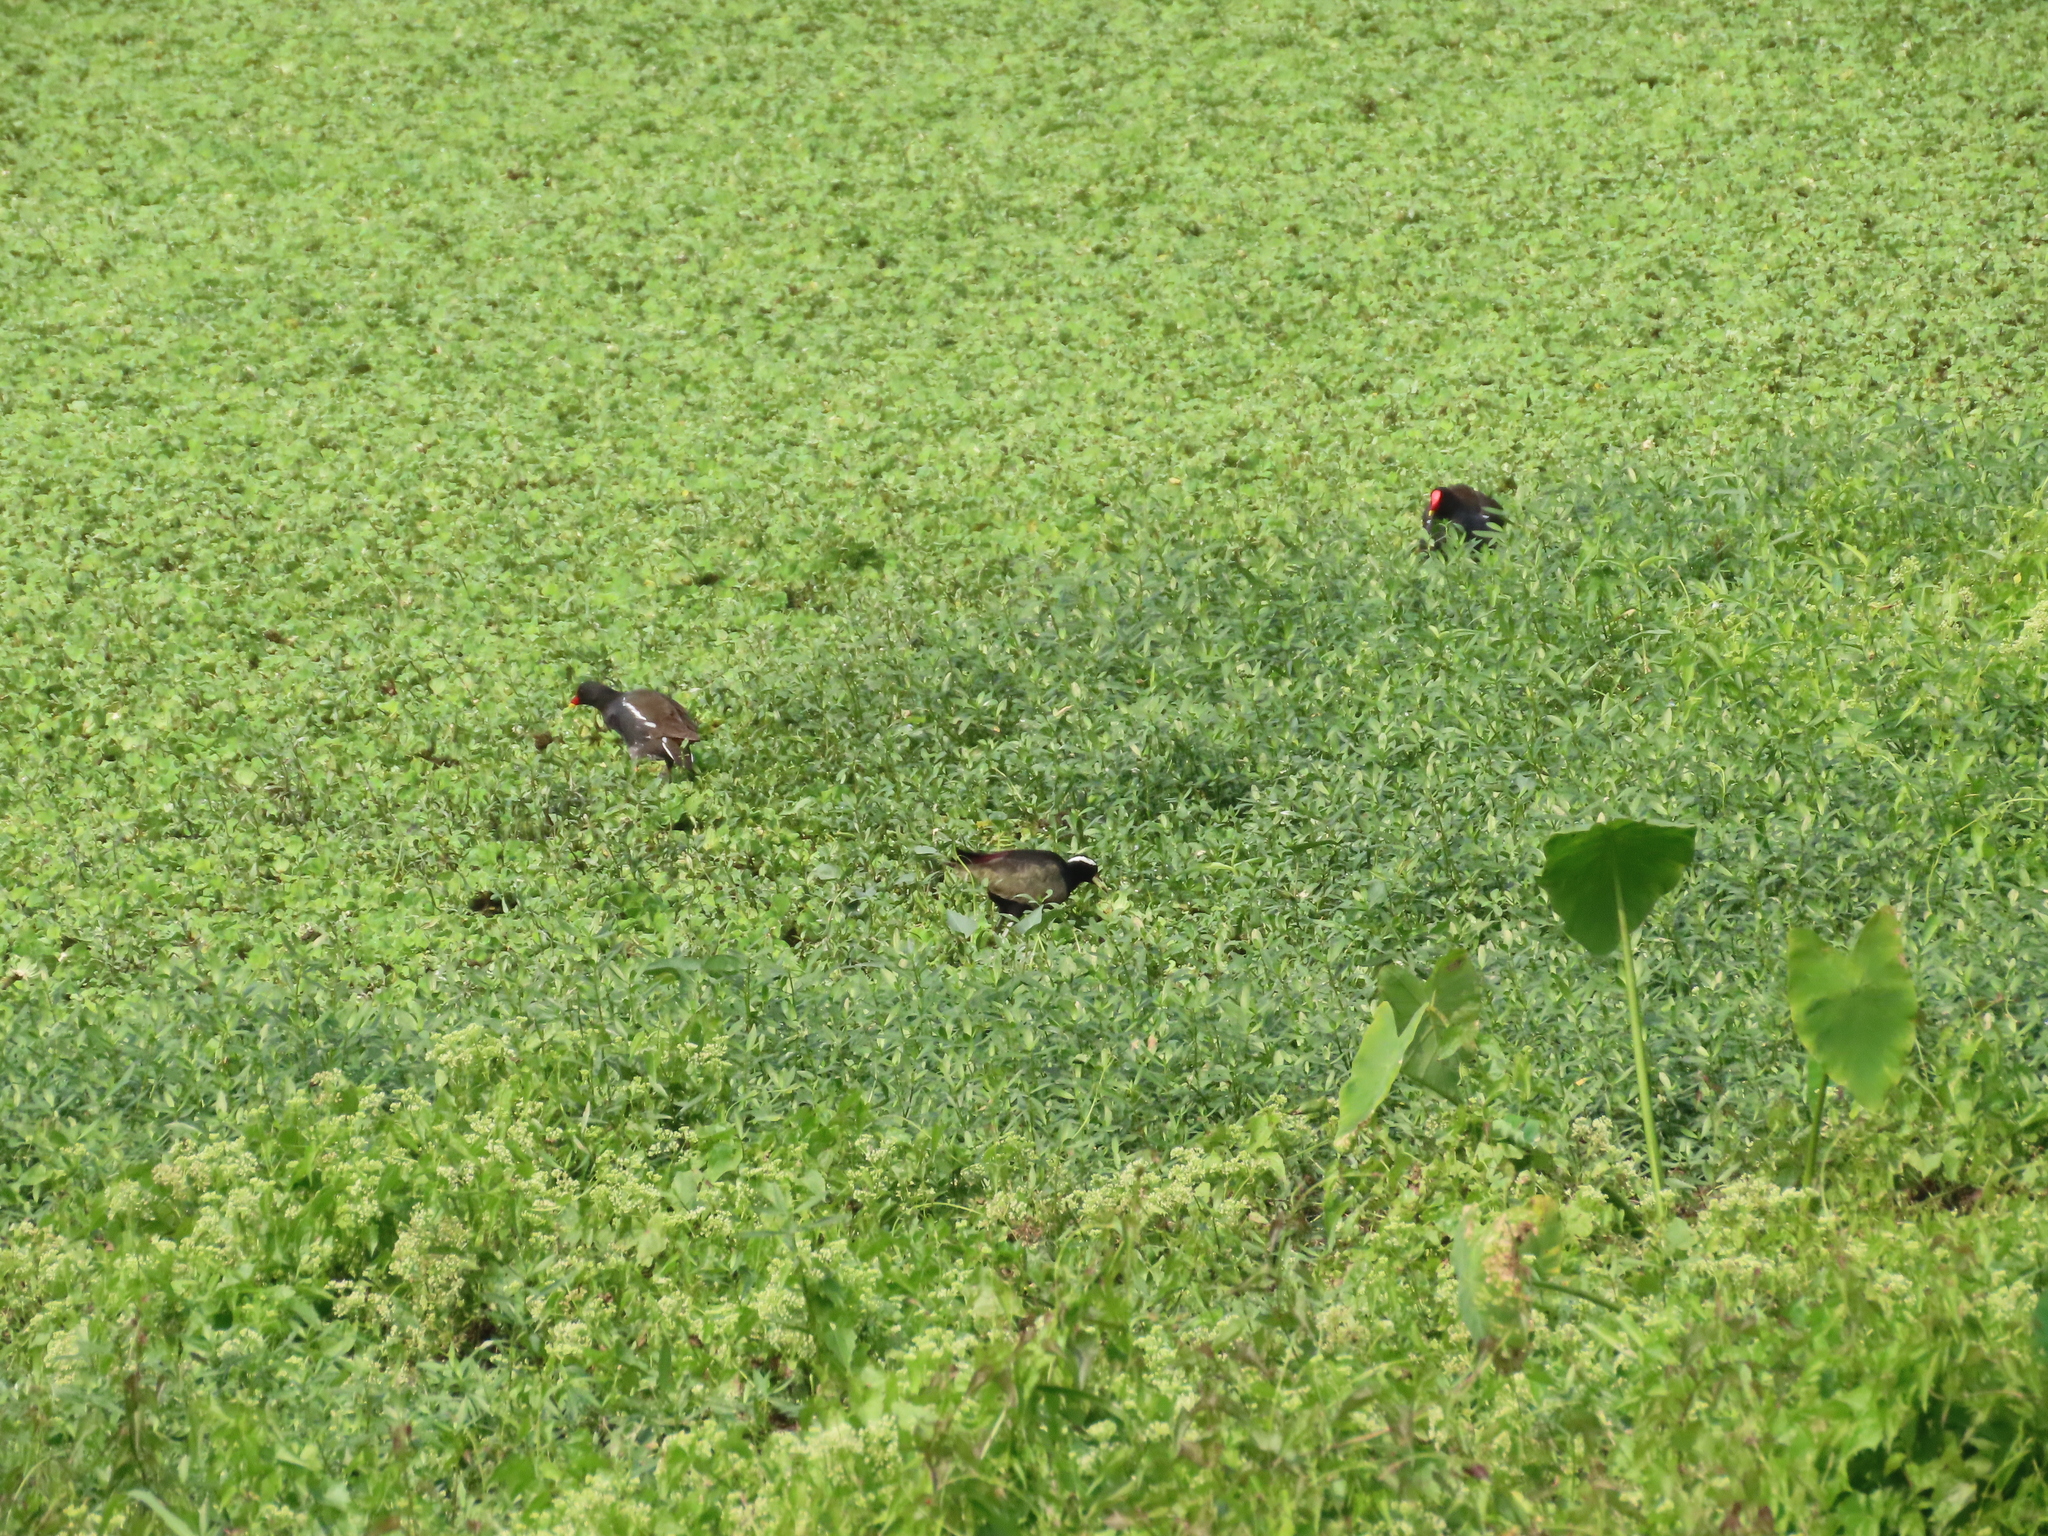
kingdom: Animalia
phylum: Chordata
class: Aves
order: Gruiformes
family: Rallidae
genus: Gallinula
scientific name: Gallinula chloropus
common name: Common moorhen
